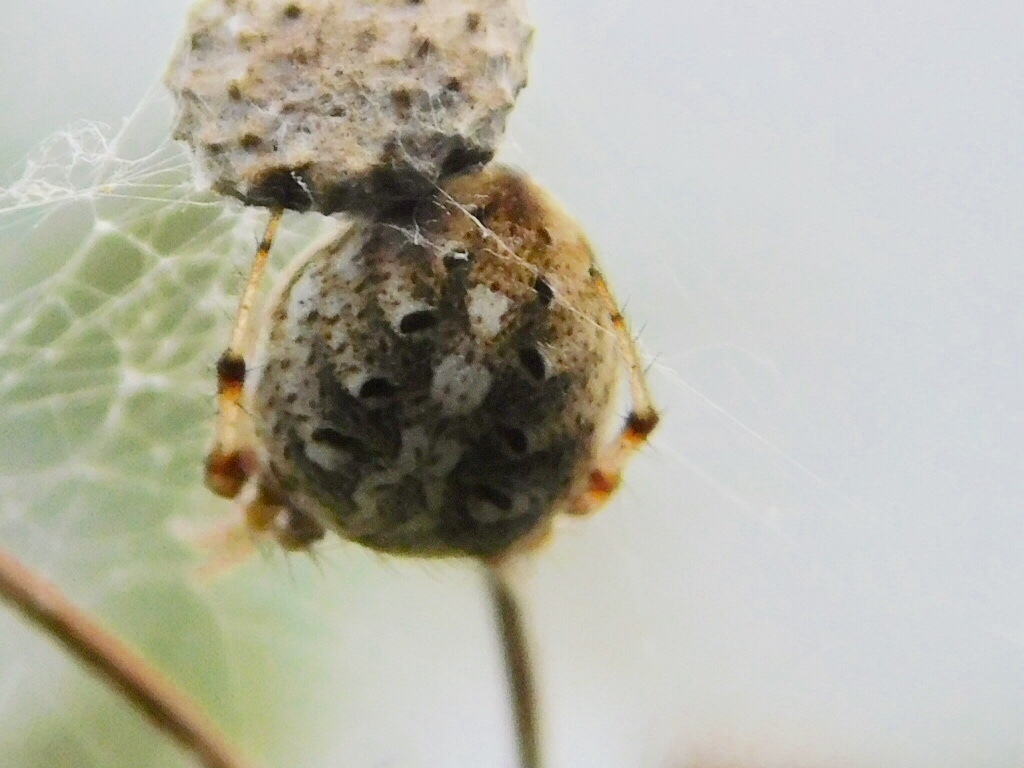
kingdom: Animalia
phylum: Arthropoda
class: Arachnida
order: Araneae
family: Araneidae
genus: Neoscona
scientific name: Neoscona arabesca
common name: Orb weavers
